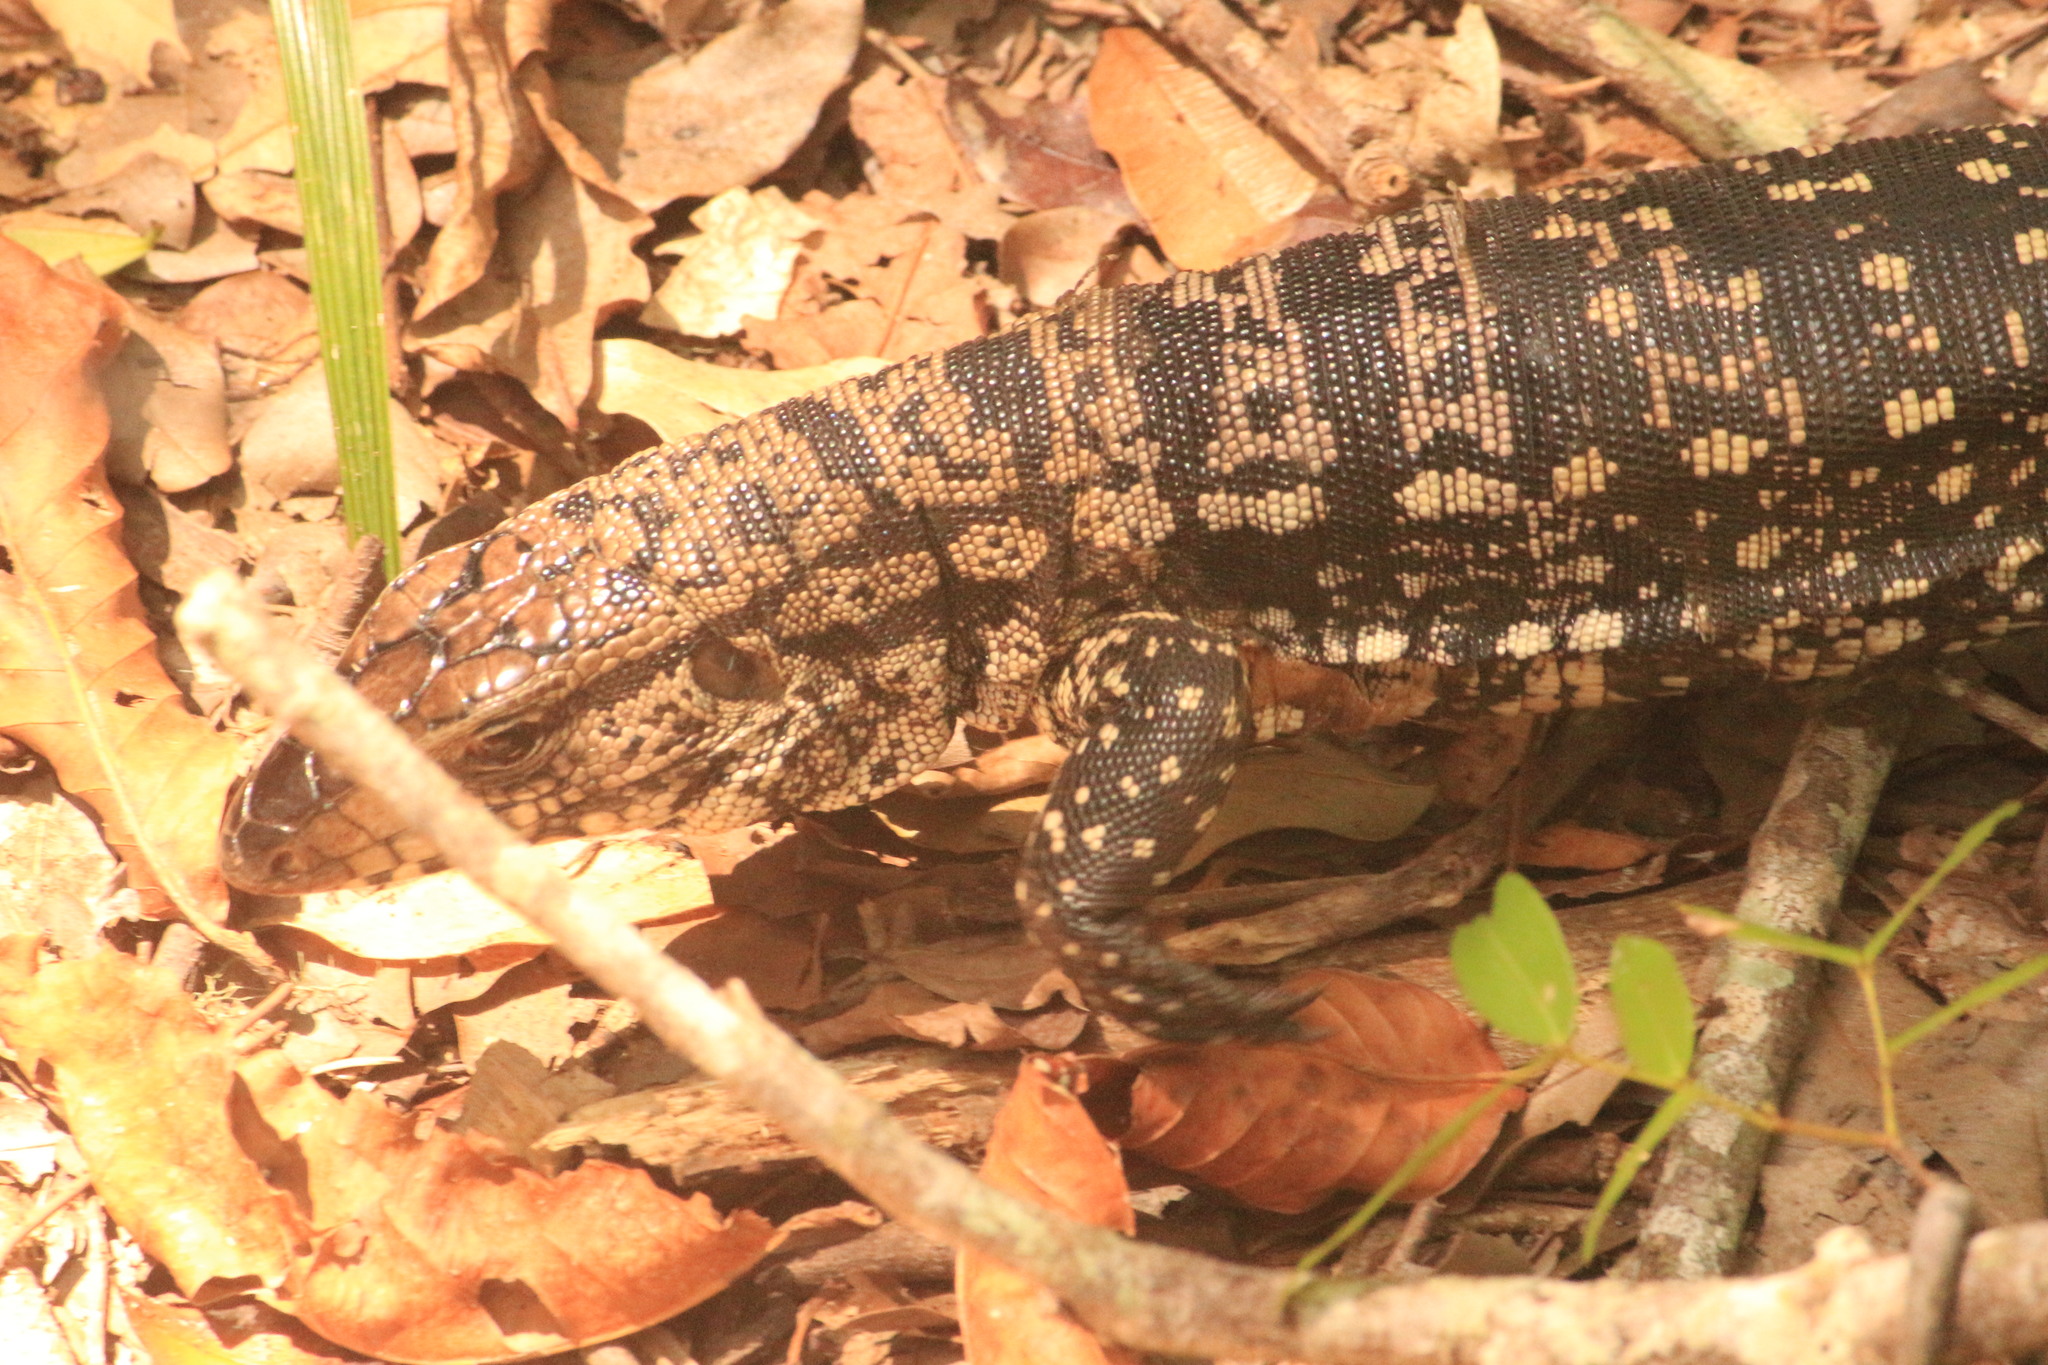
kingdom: Animalia
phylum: Chordata
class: Squamata
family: Teiidae
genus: Salvator
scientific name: Salvator merianae
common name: Argentine black and white tegu
